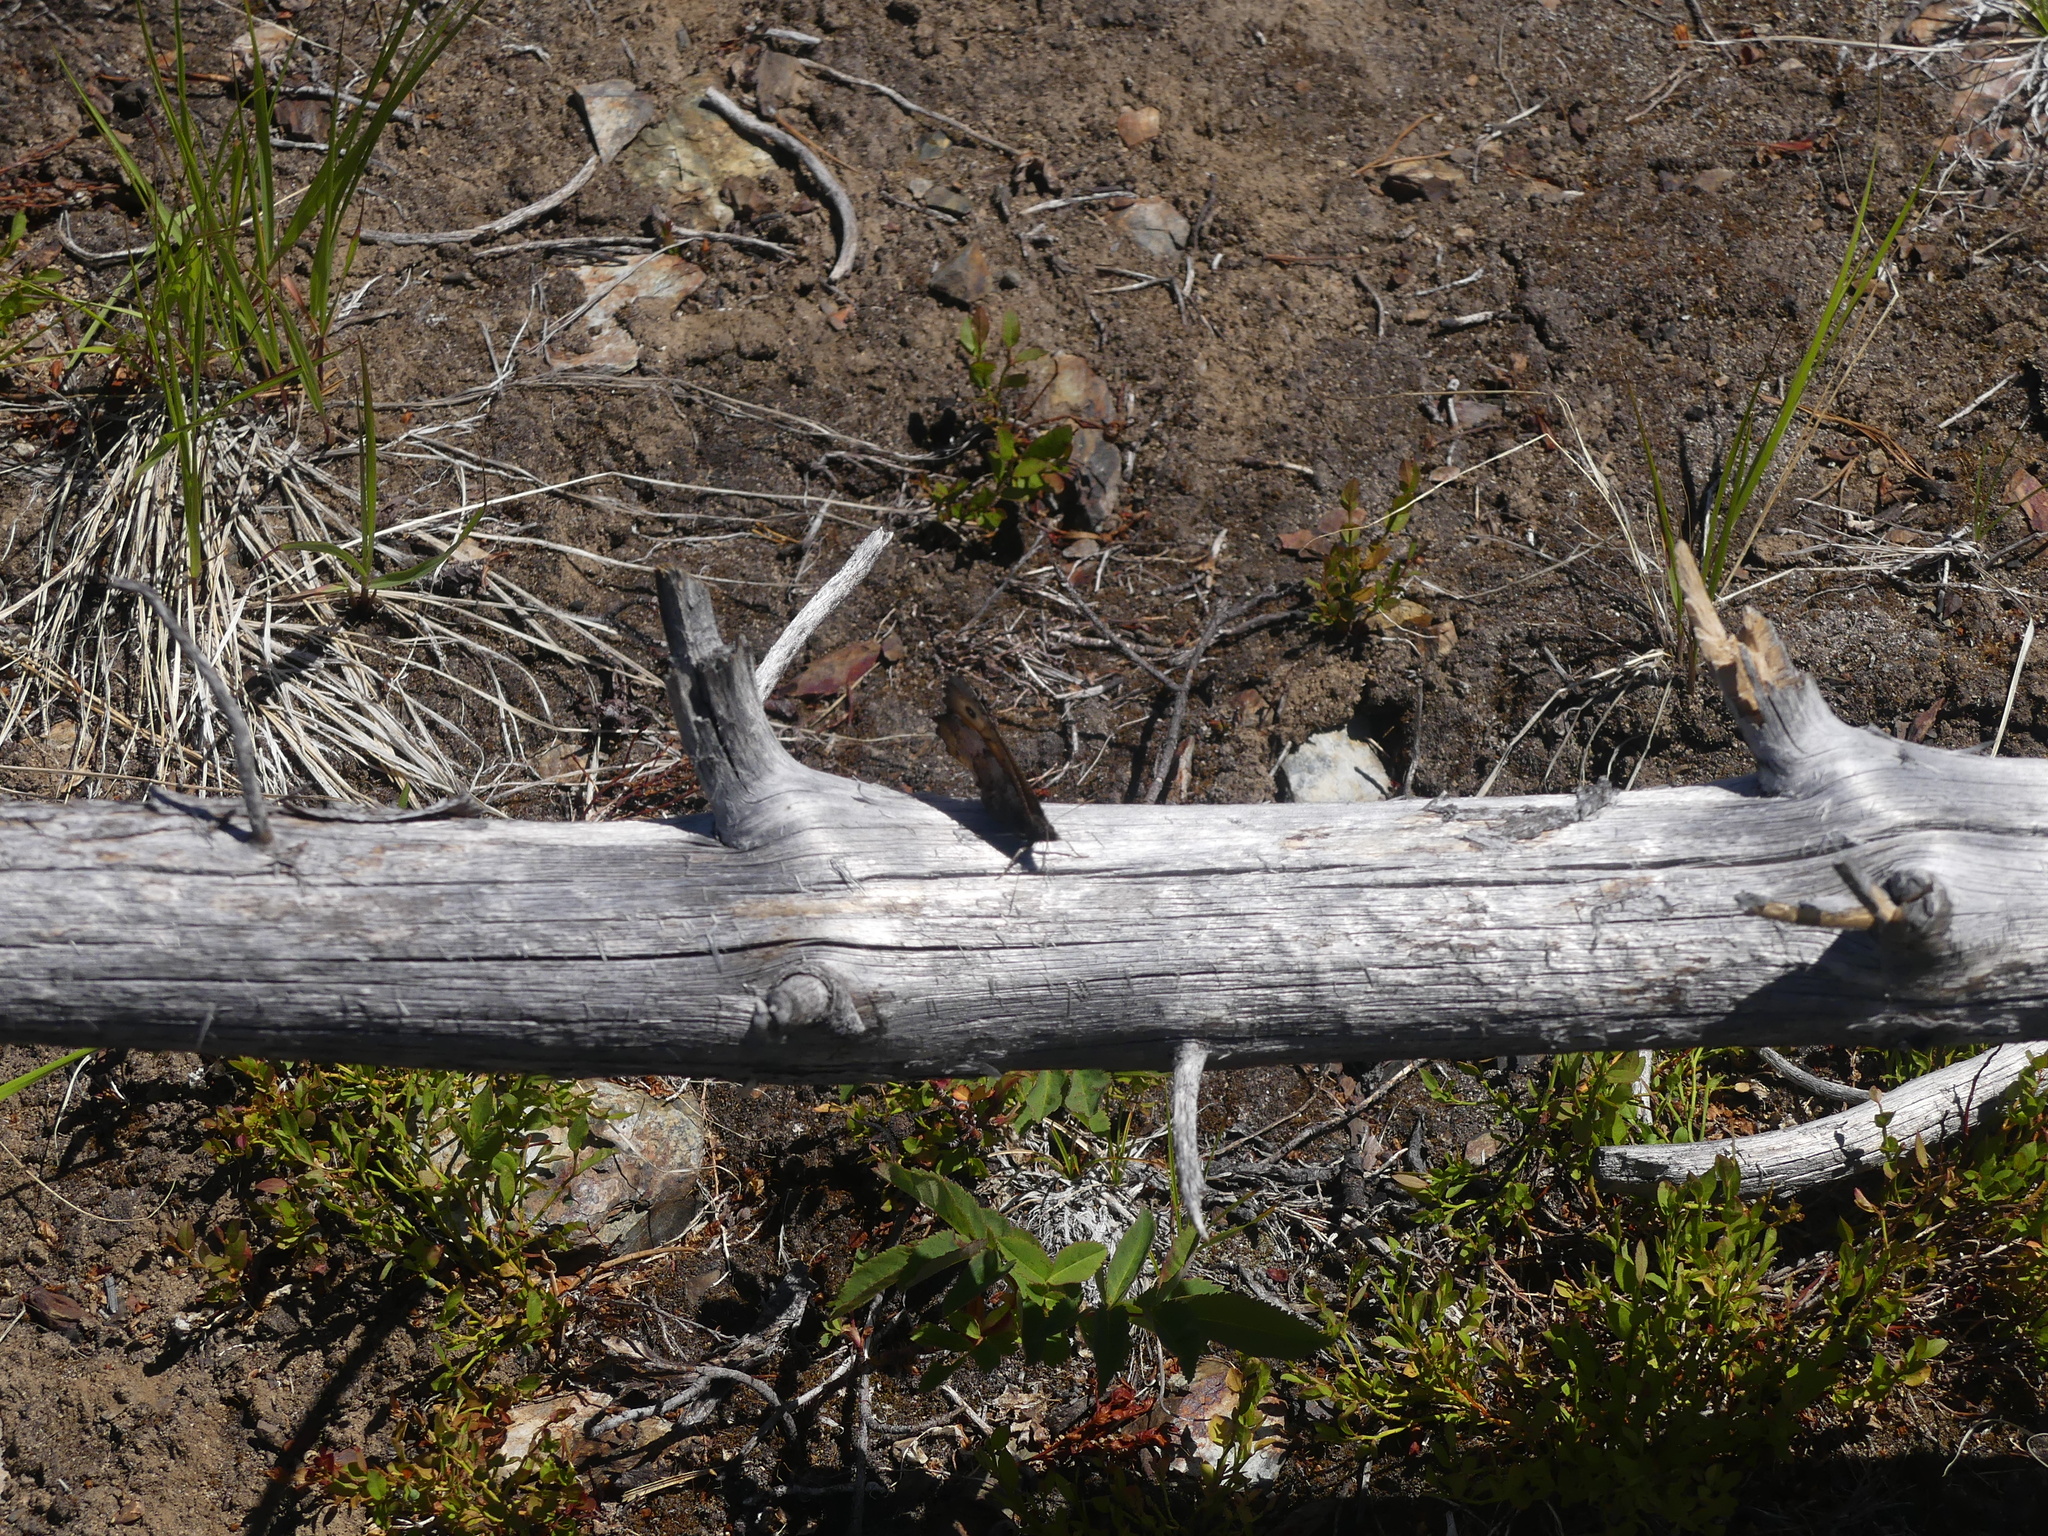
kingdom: Animalia
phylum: Arthropoda
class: Insecta
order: Lepidoptera
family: Nymphalidae
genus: Oeneis
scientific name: Oeneis macounii
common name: Macoun's arctic
